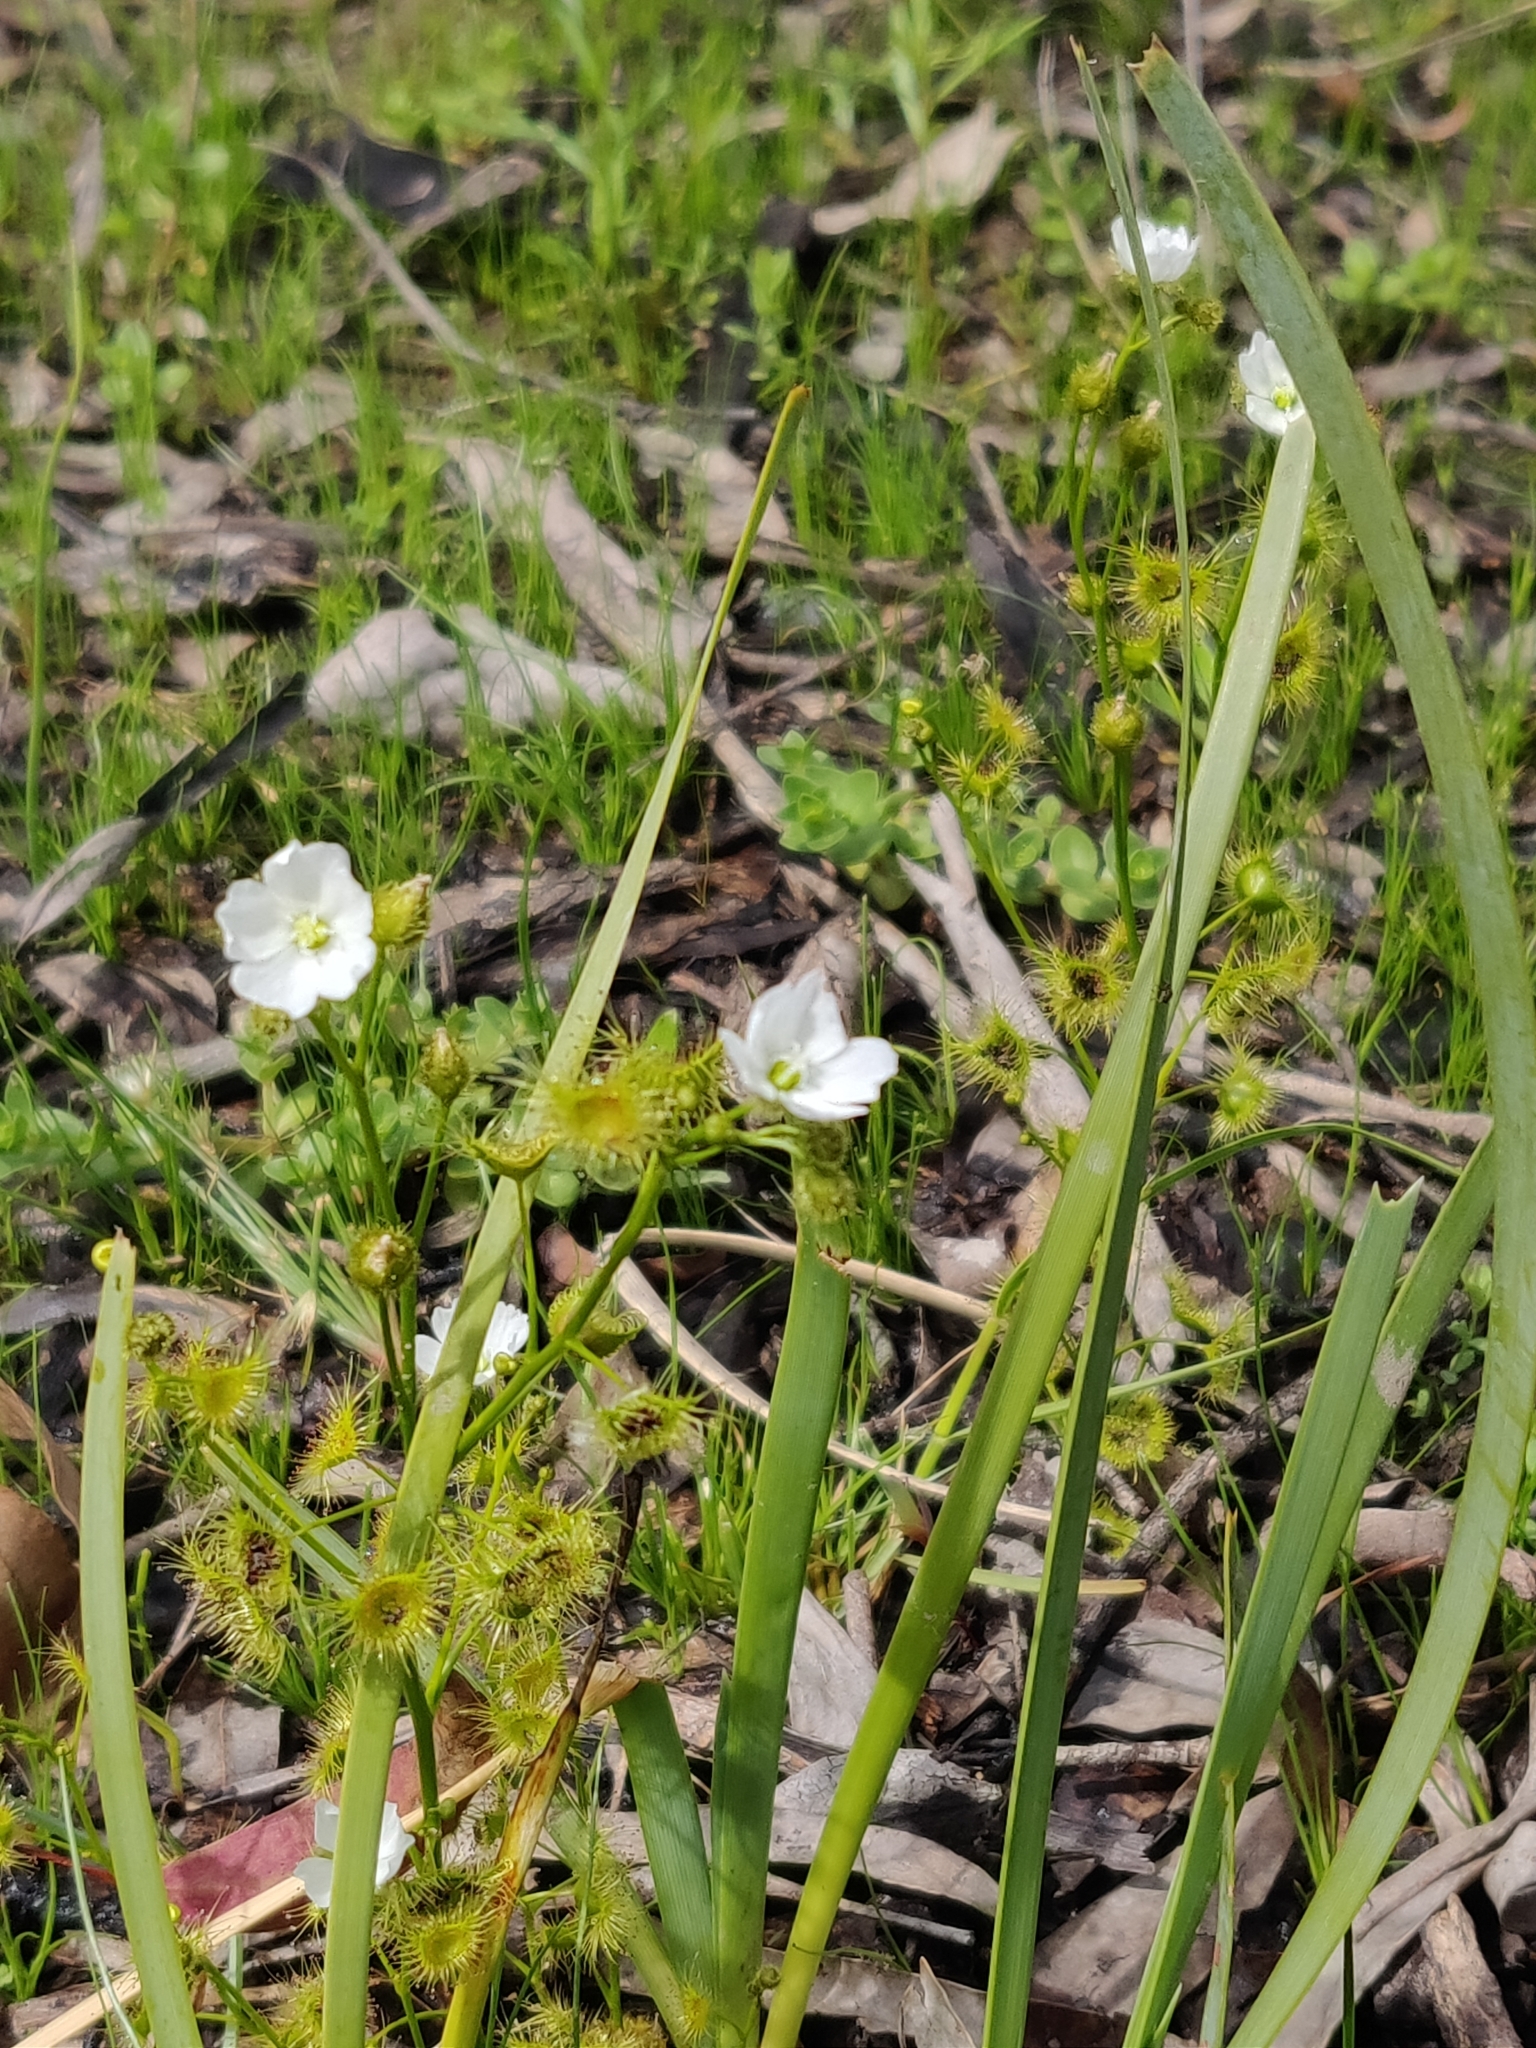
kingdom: Plantae
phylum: Tracheophyta
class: Magnoliopsida
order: Caryophyllales
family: Droseraceae
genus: Drosera
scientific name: Drosera gunniana
